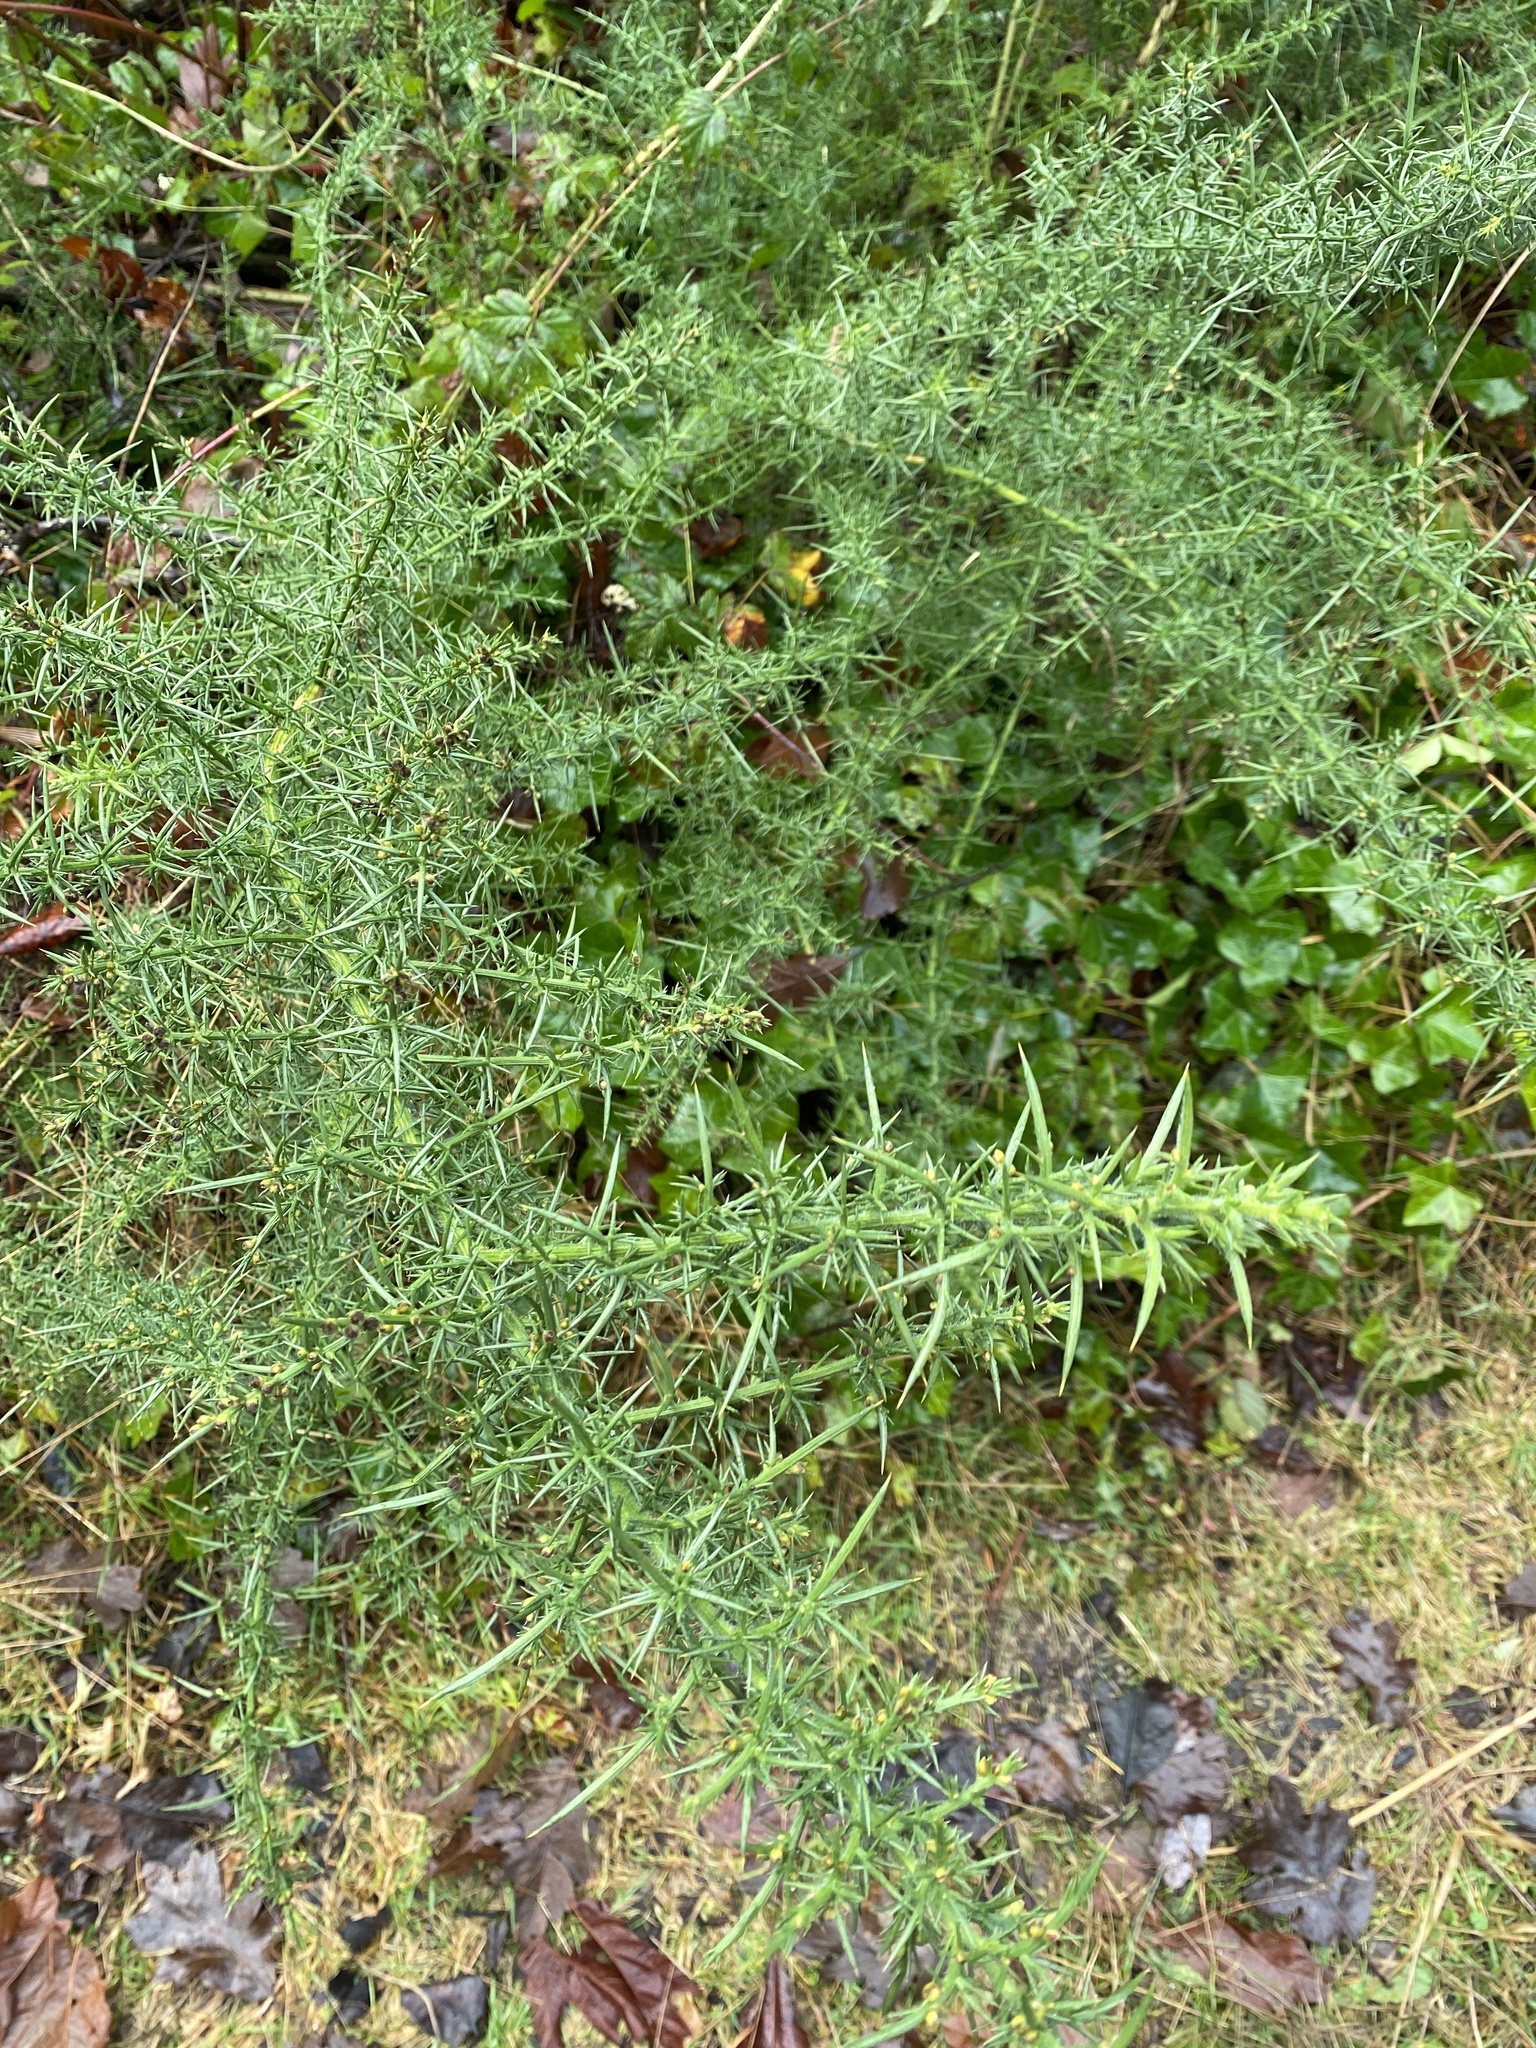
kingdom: Plantae
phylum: Tracheophyta
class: Magnoliopsida
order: Fabales
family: Fabaceae
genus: Ulex
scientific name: Ulex europaeus
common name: Common gorse
